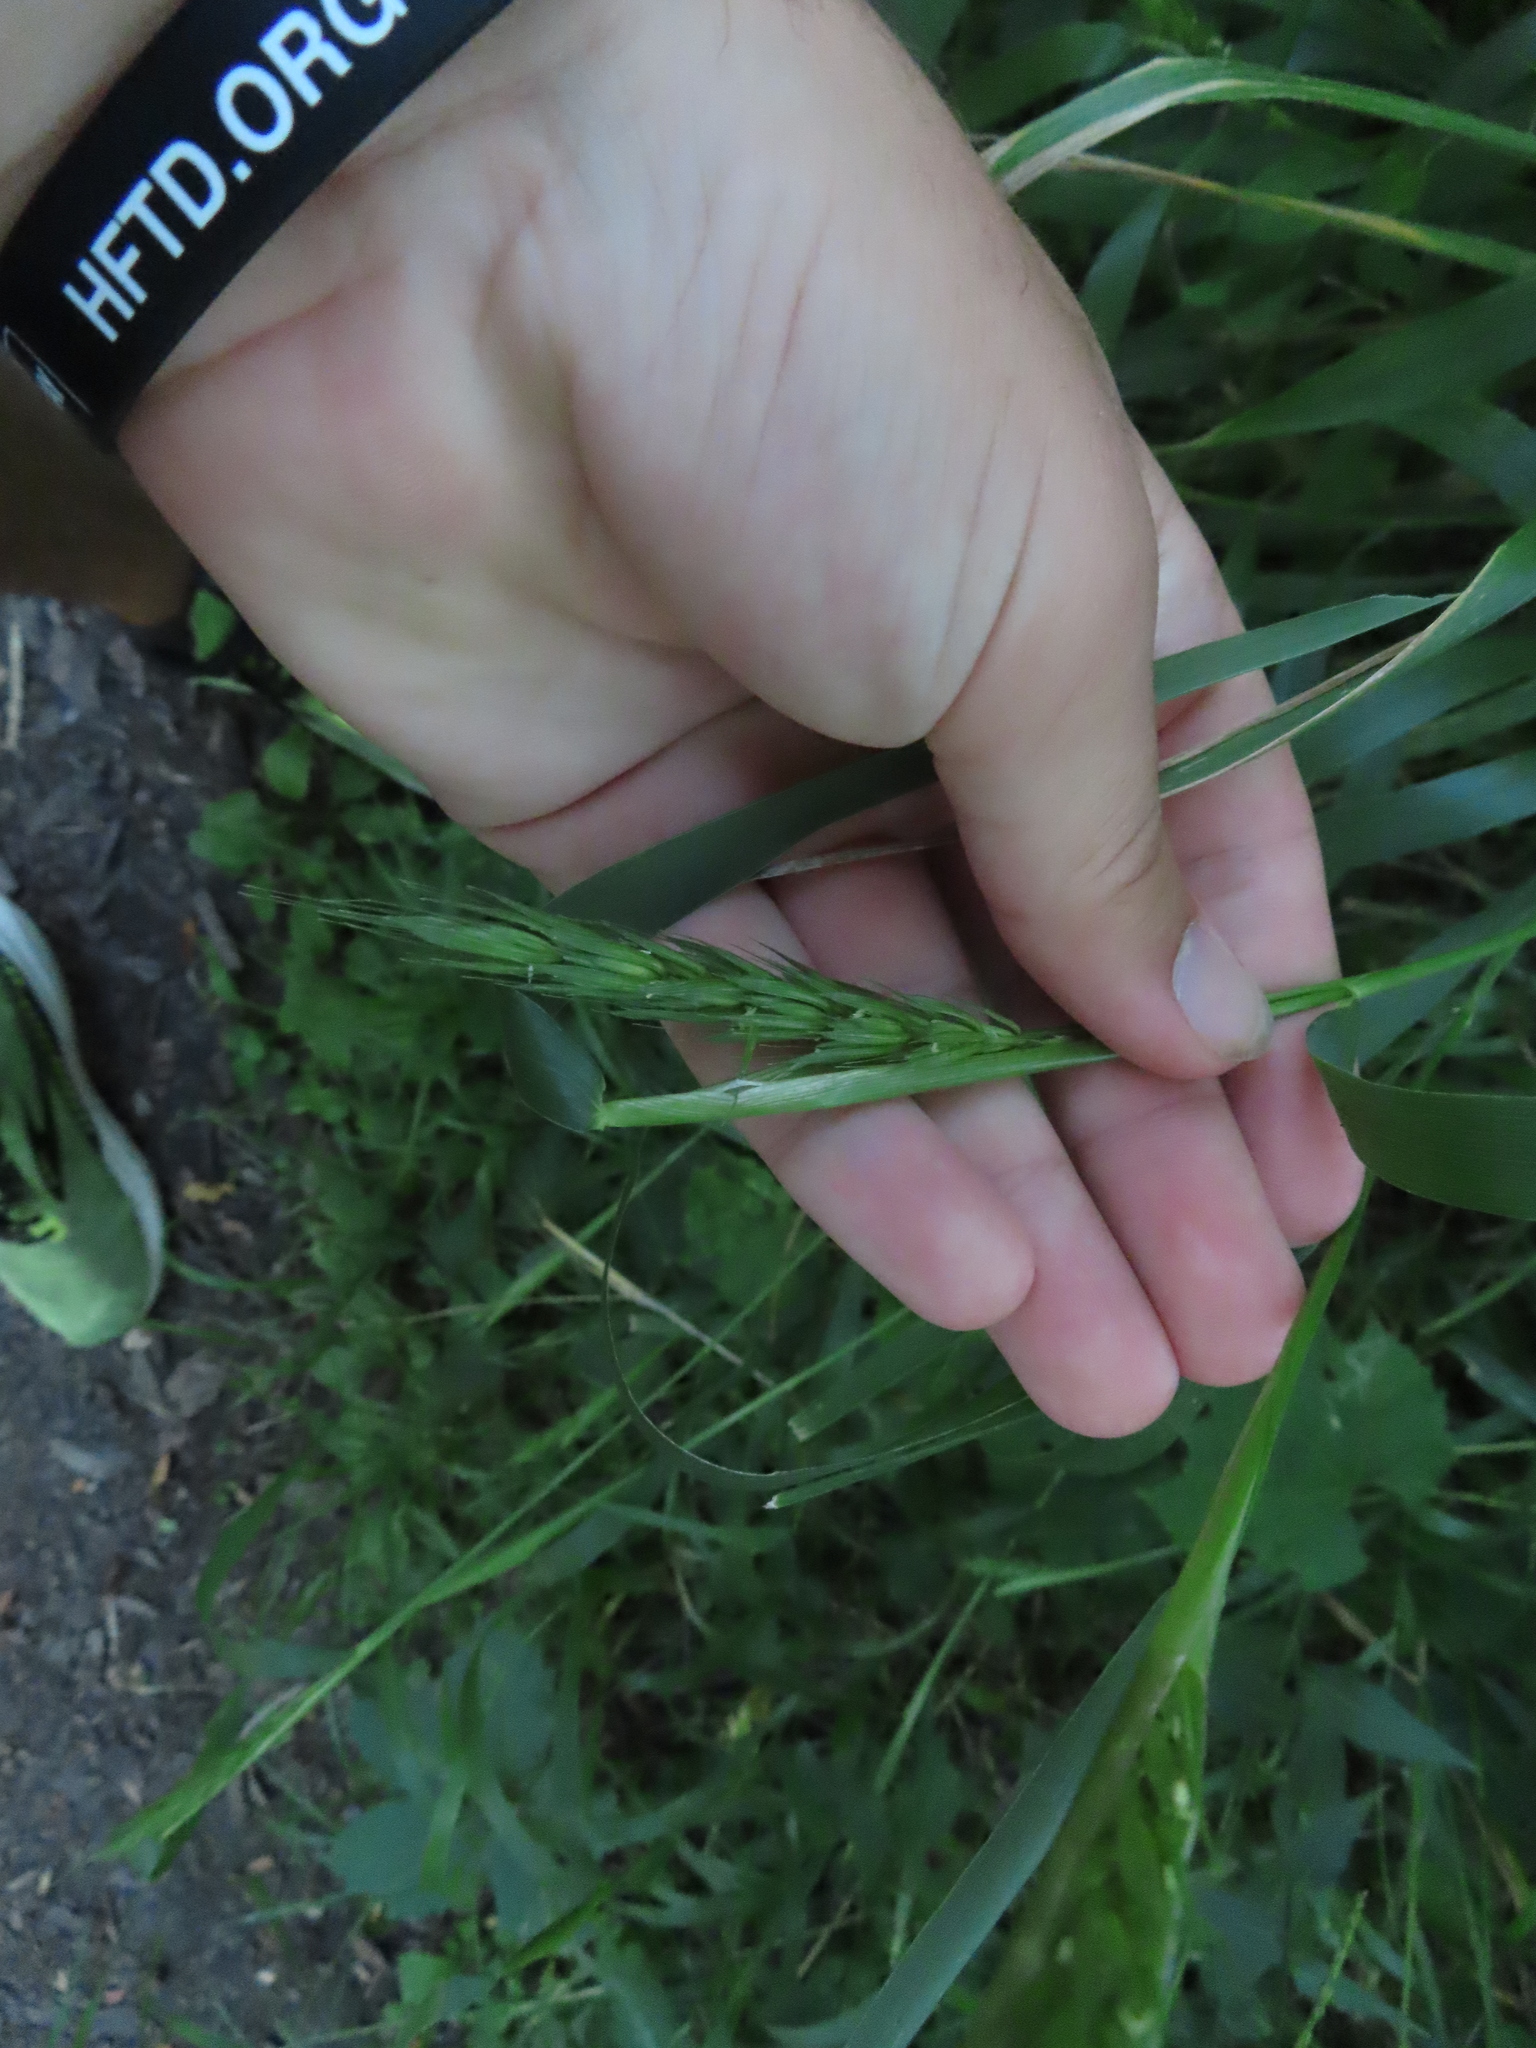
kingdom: Plantae
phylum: Tracheophyta
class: Liliopsida
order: Poales
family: Poaceae
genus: Elymus
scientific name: Elymus virginicus
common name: Common eastern wildrye
